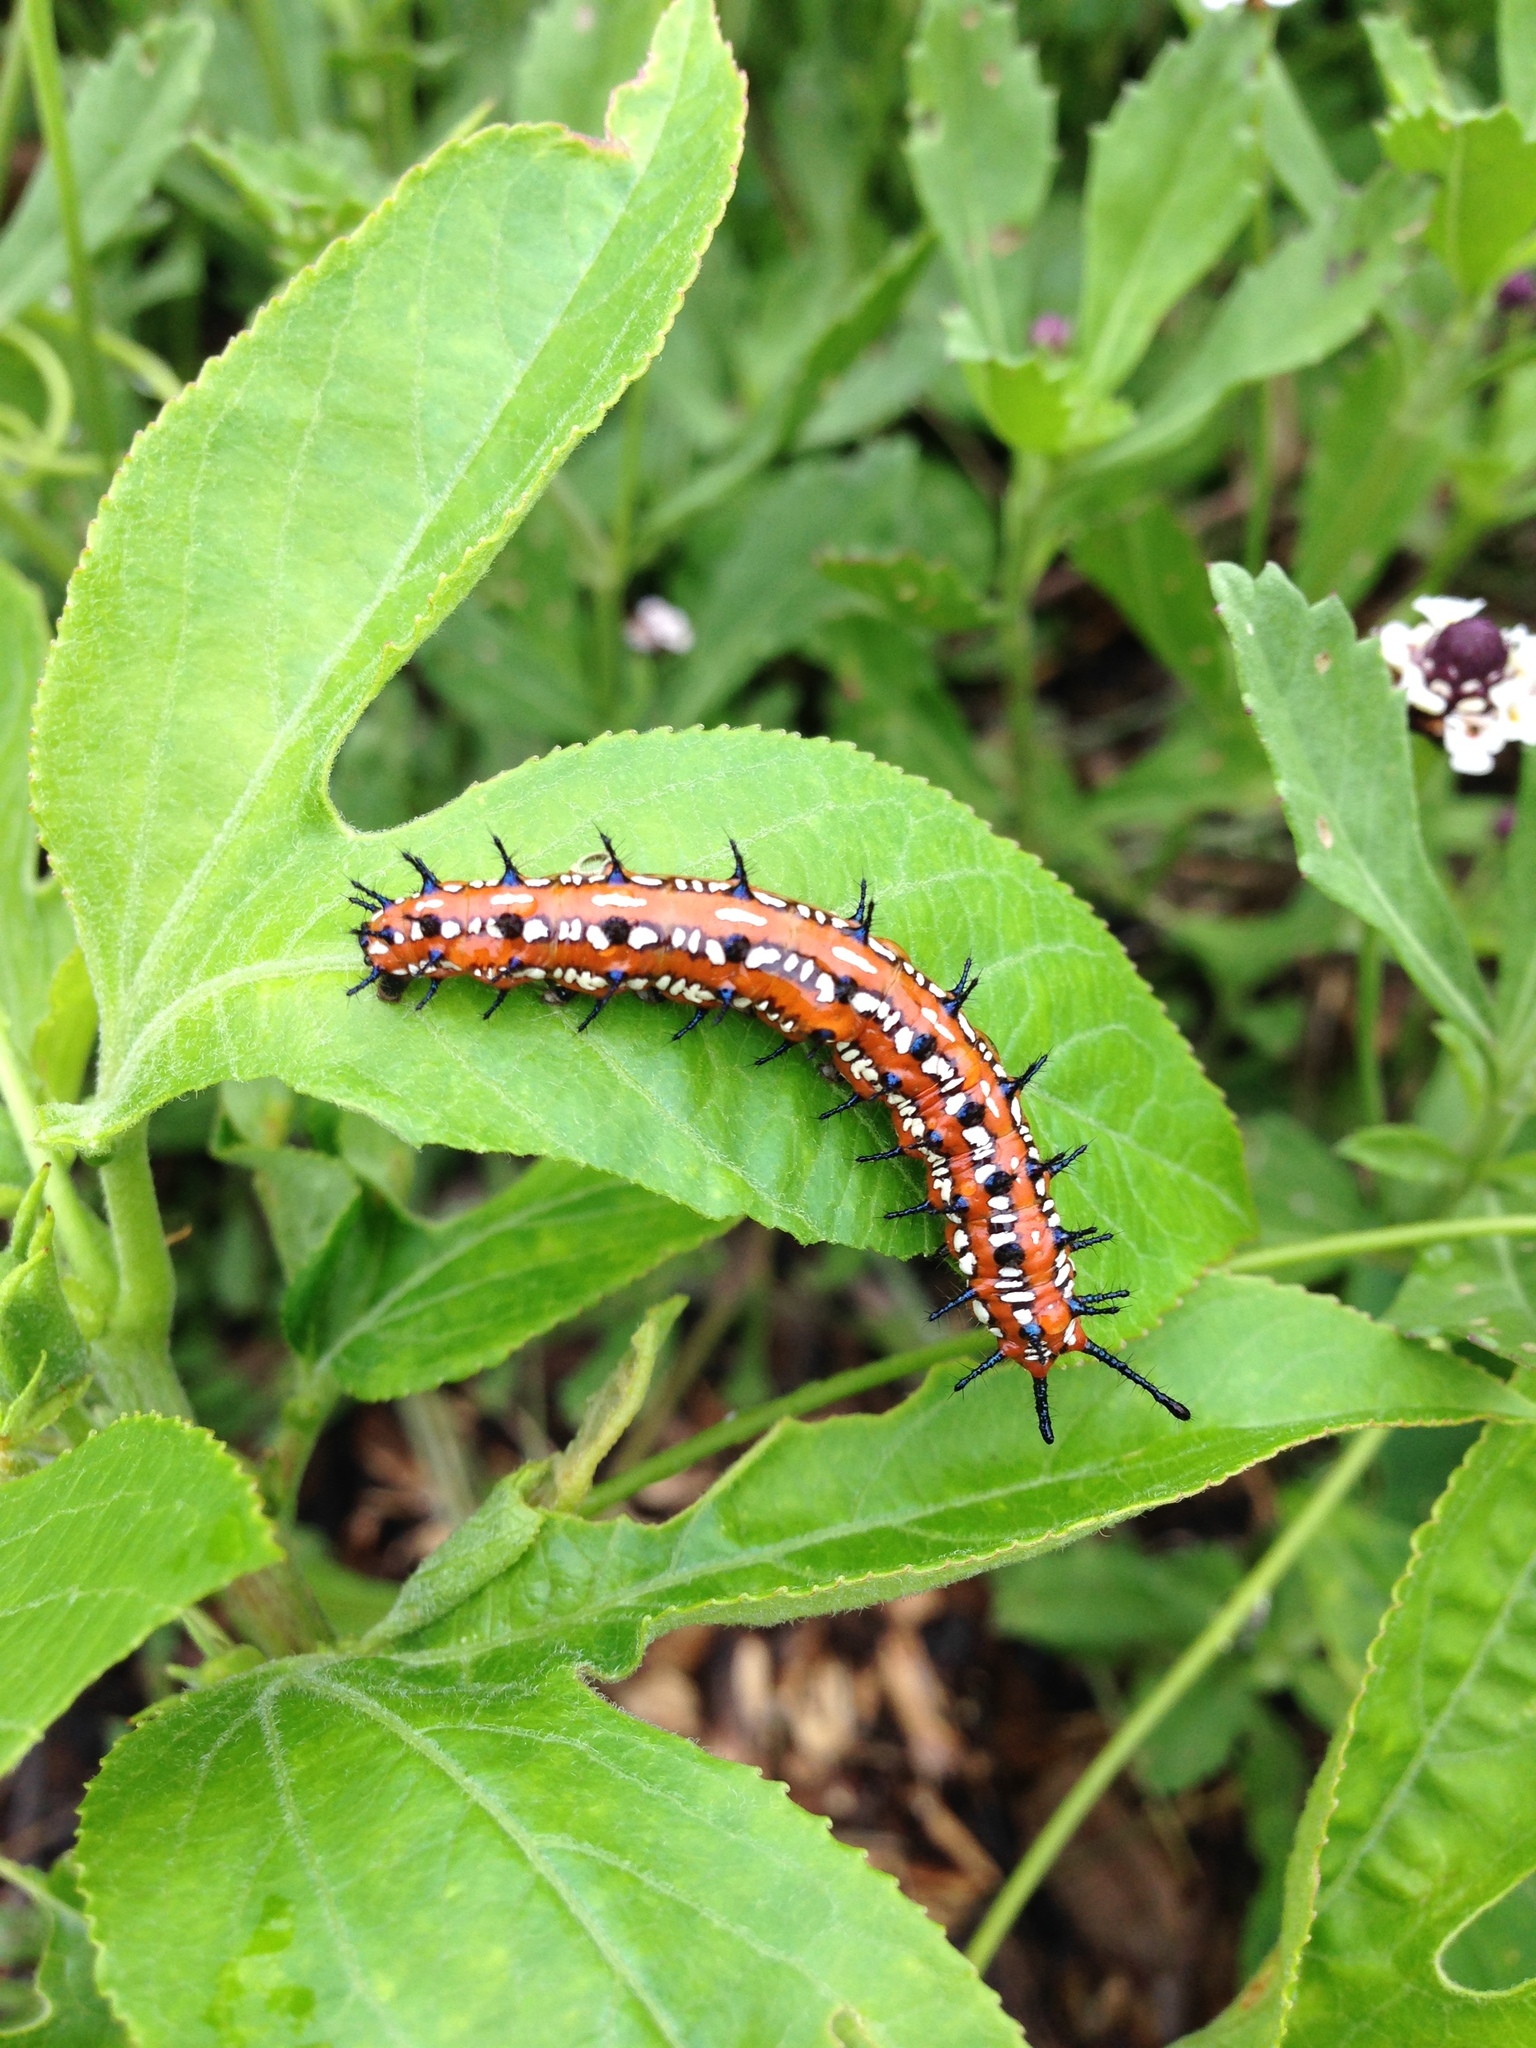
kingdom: Animalia
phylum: Arthropoda
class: Insecta
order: Lepidoptera
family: Nymphalidae
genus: Dione
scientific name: Dione vanillae
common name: Gulf fritillary
